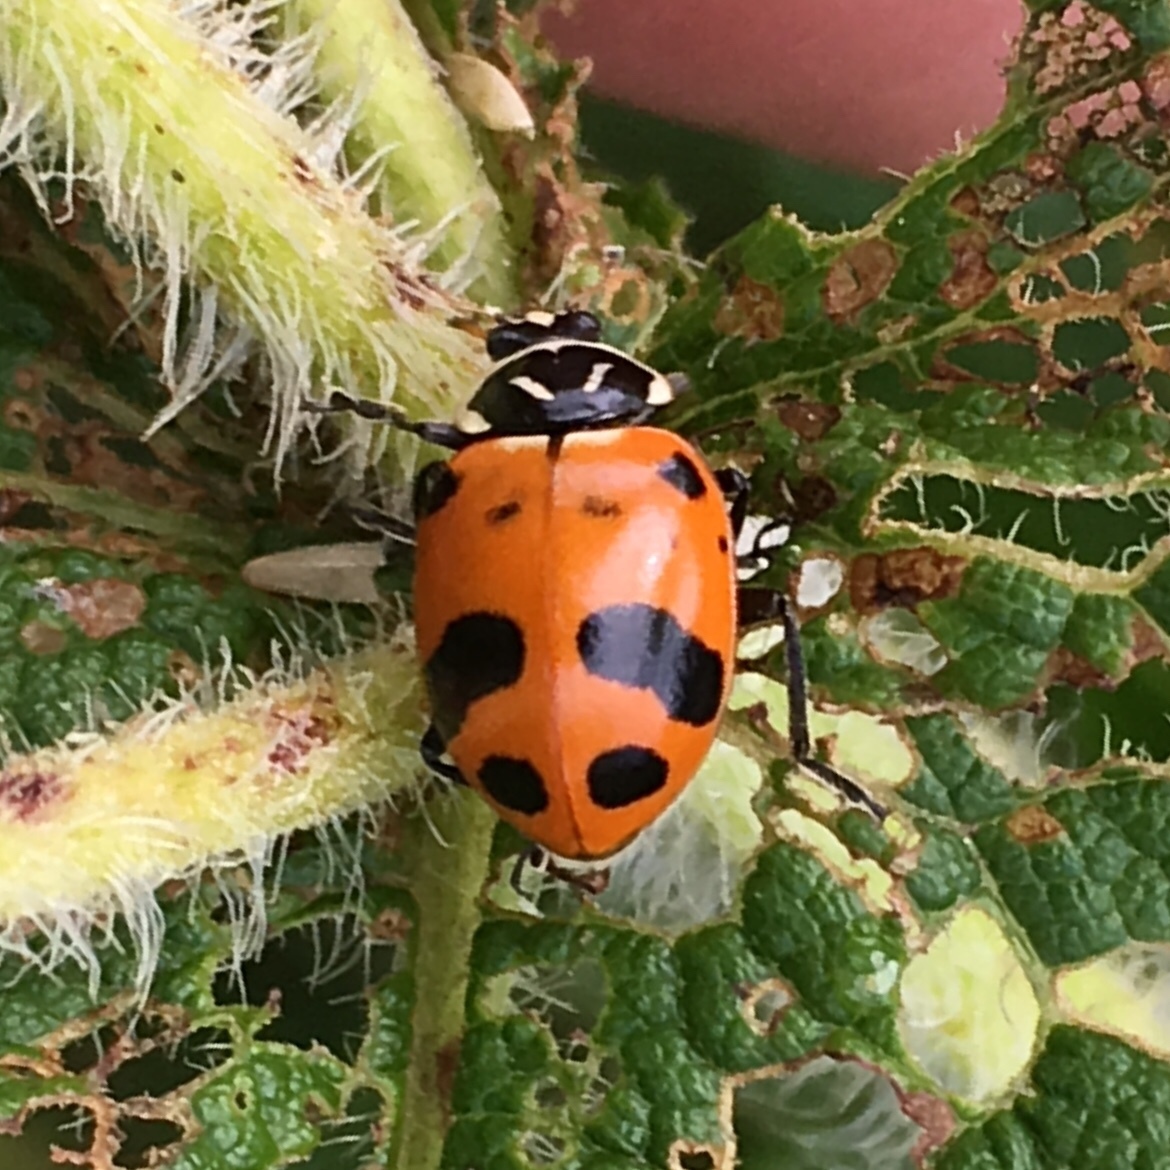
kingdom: Animalia
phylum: Arthropoda
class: Insecta
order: Coleoptera
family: Coccinellidae
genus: Hippodamia
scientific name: Hippodamia glacialis
